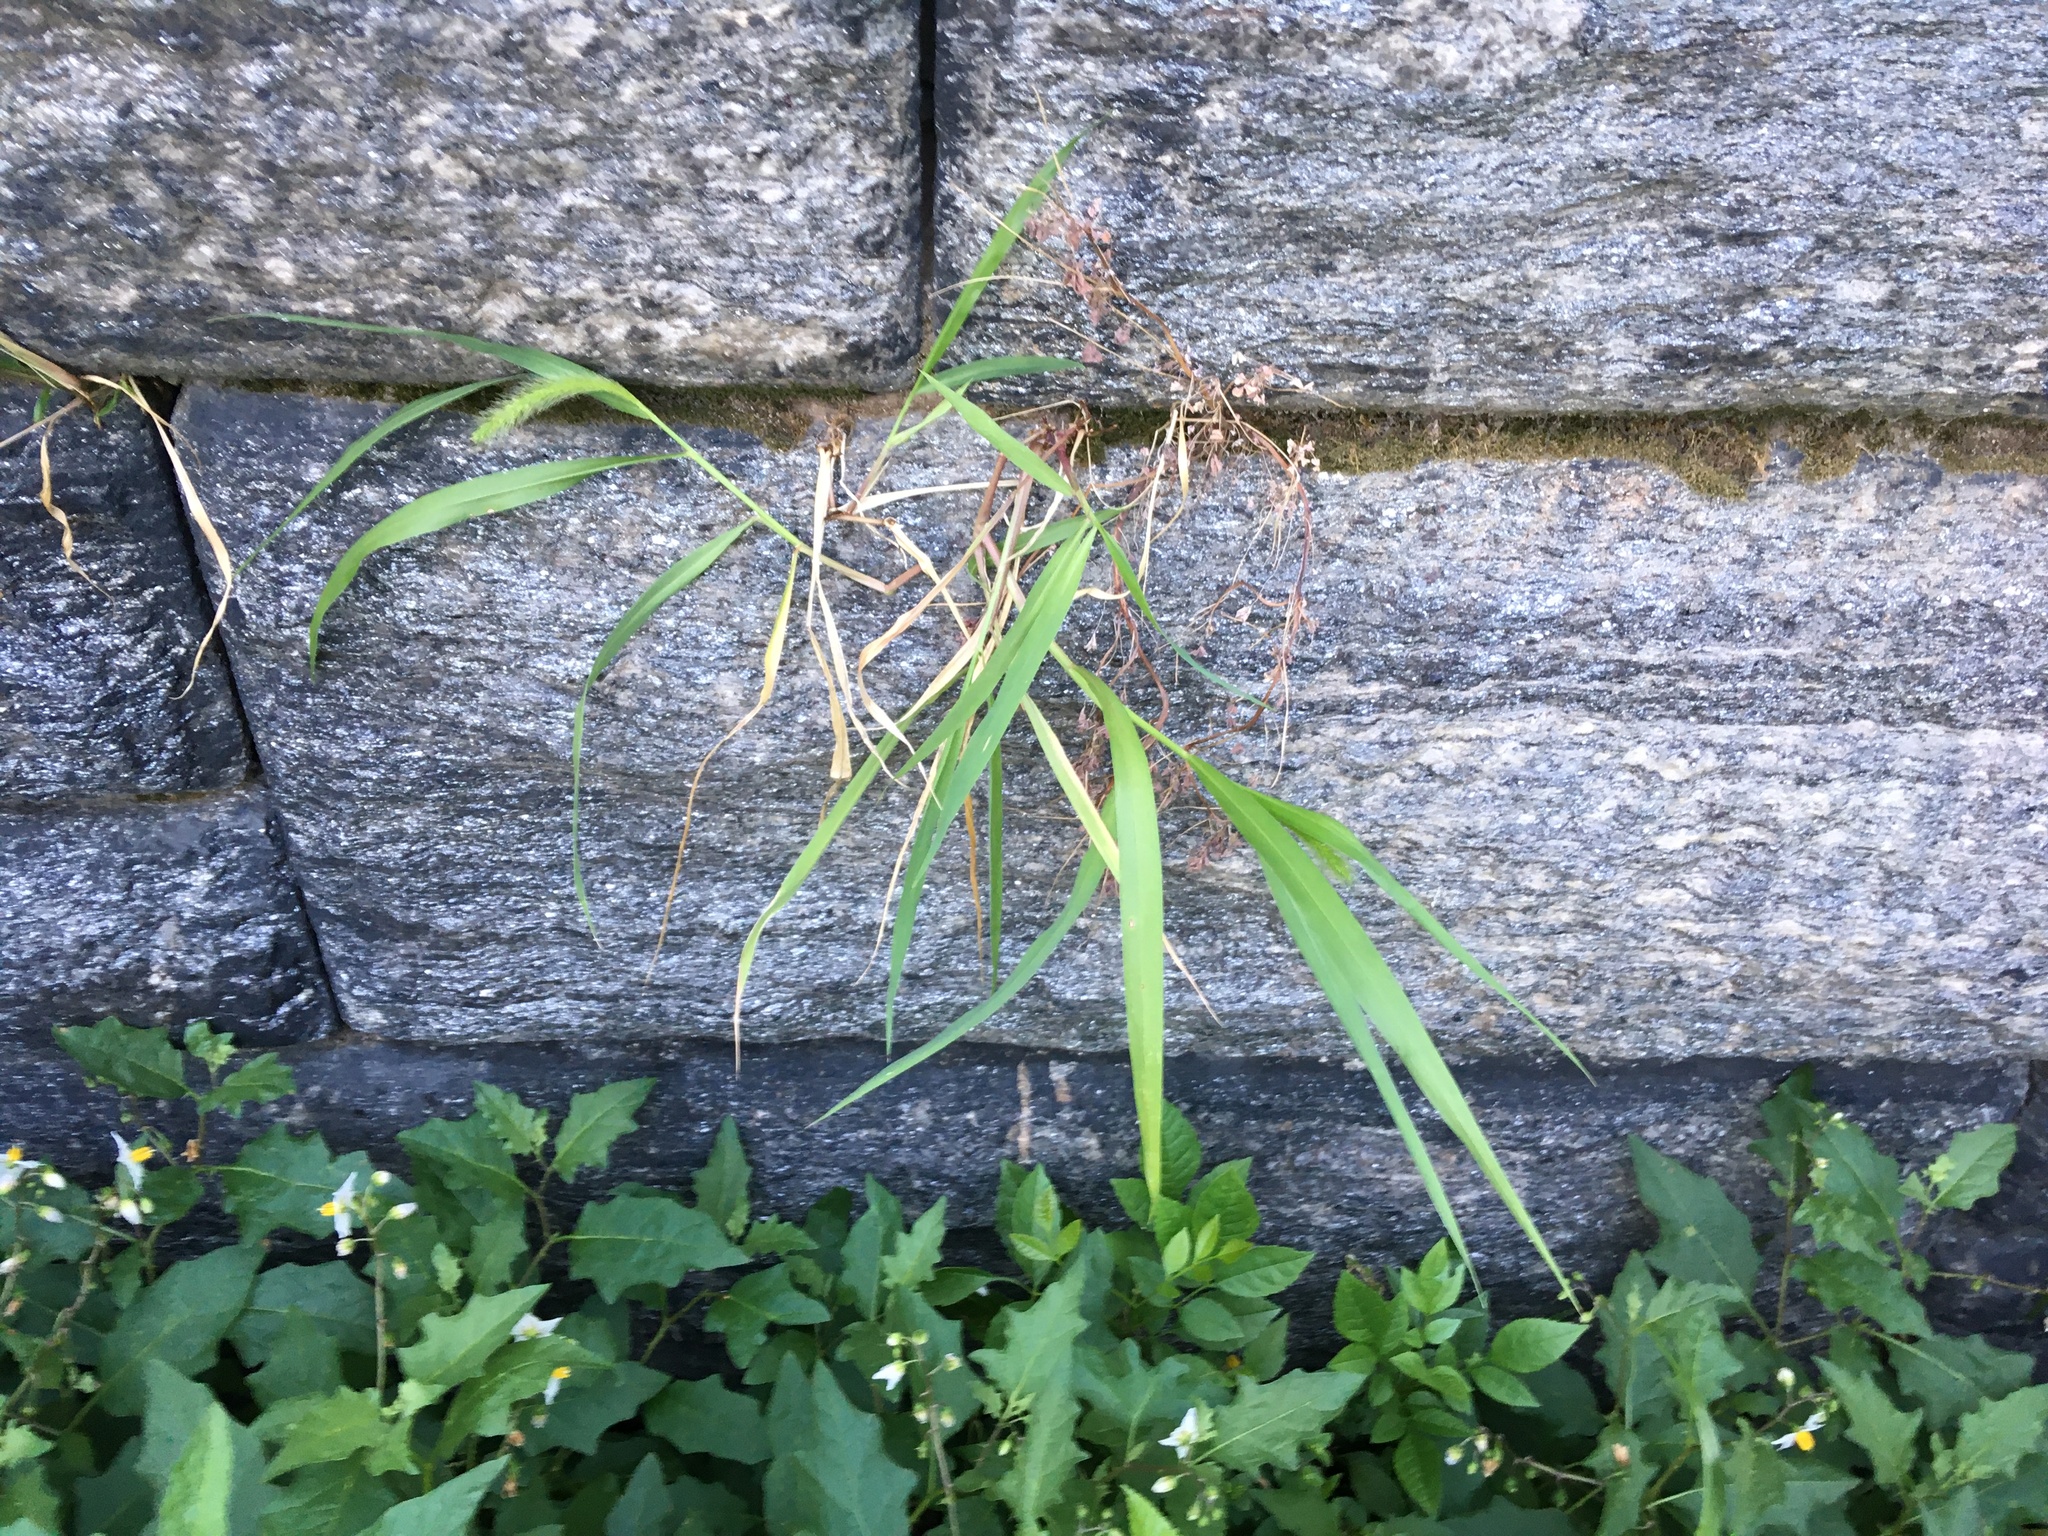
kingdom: Plantae
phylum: Tracheophyta
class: Liliopsida
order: Poales
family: Poaceae
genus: Setaria
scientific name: Setaria viridis
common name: Green bristlegrass
